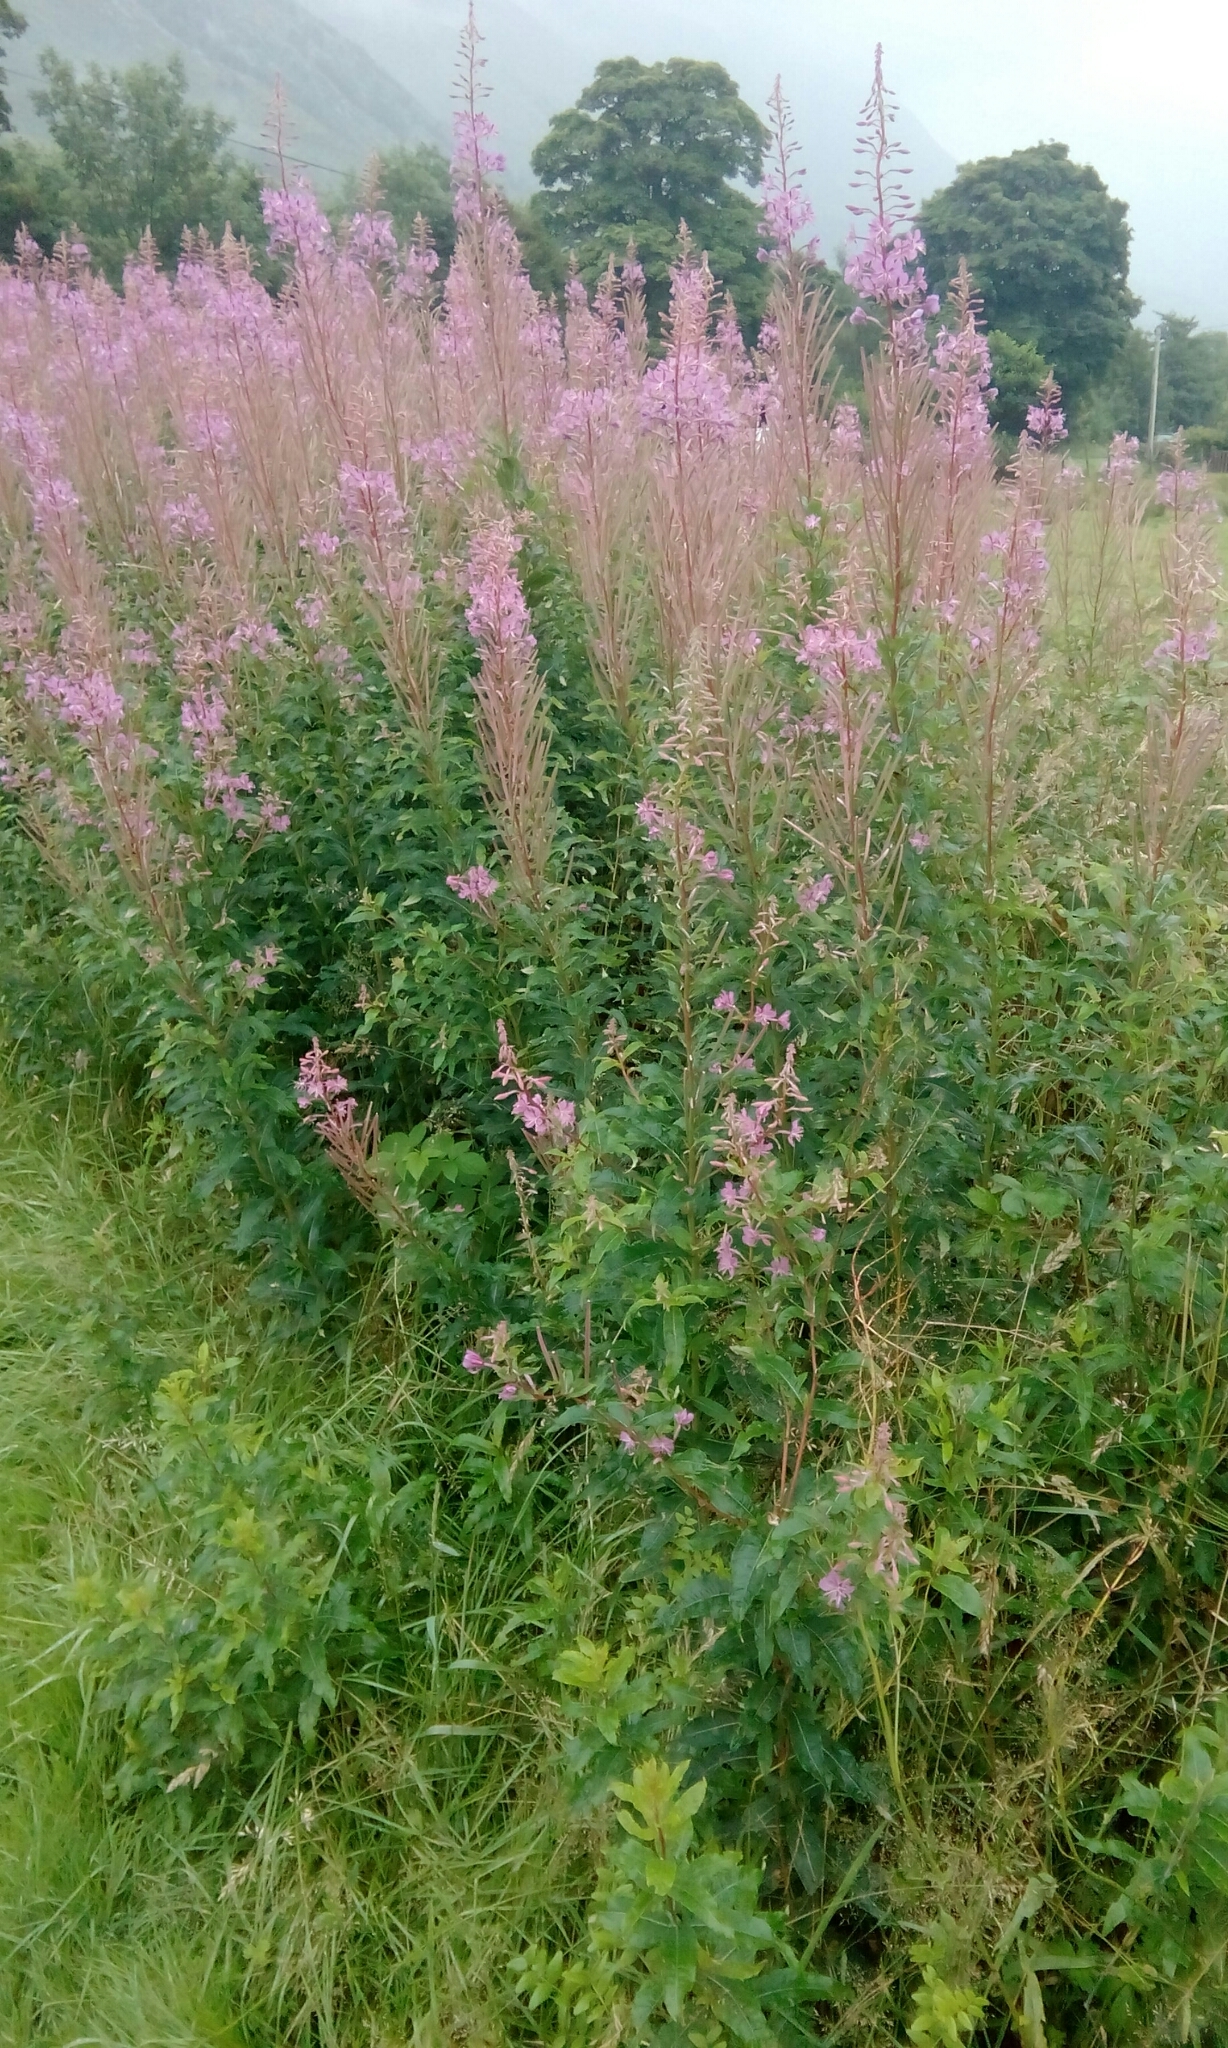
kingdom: Plantae
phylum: Tracheophyta
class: Magnoliopsida
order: Myrtales
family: Onagraceae
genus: Chamaenerion
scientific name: Chamaenerion angustifolium
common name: Fireweed
